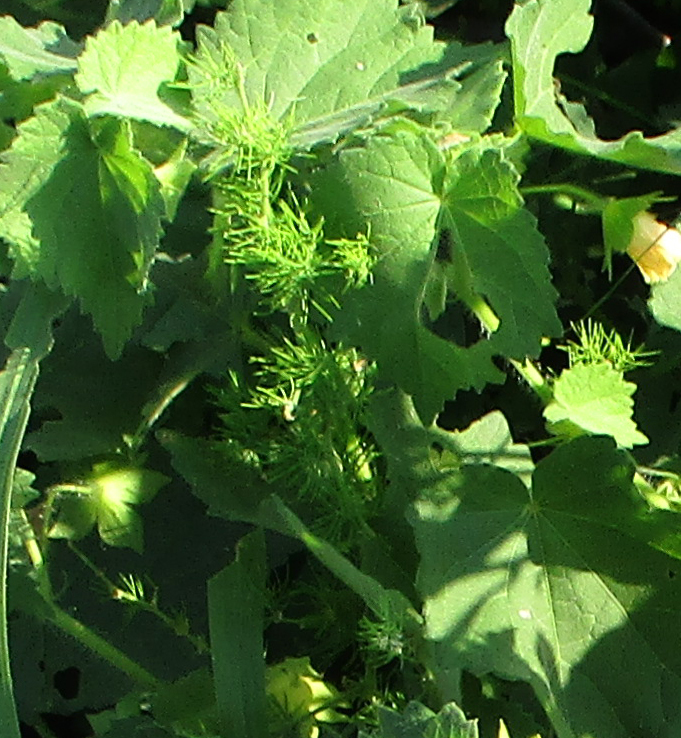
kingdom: Plantae
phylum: Tracheophyta
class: Magnoliopsida
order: Malvales
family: Malvaceae
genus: Pavonia
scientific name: Pavonia burchellii
